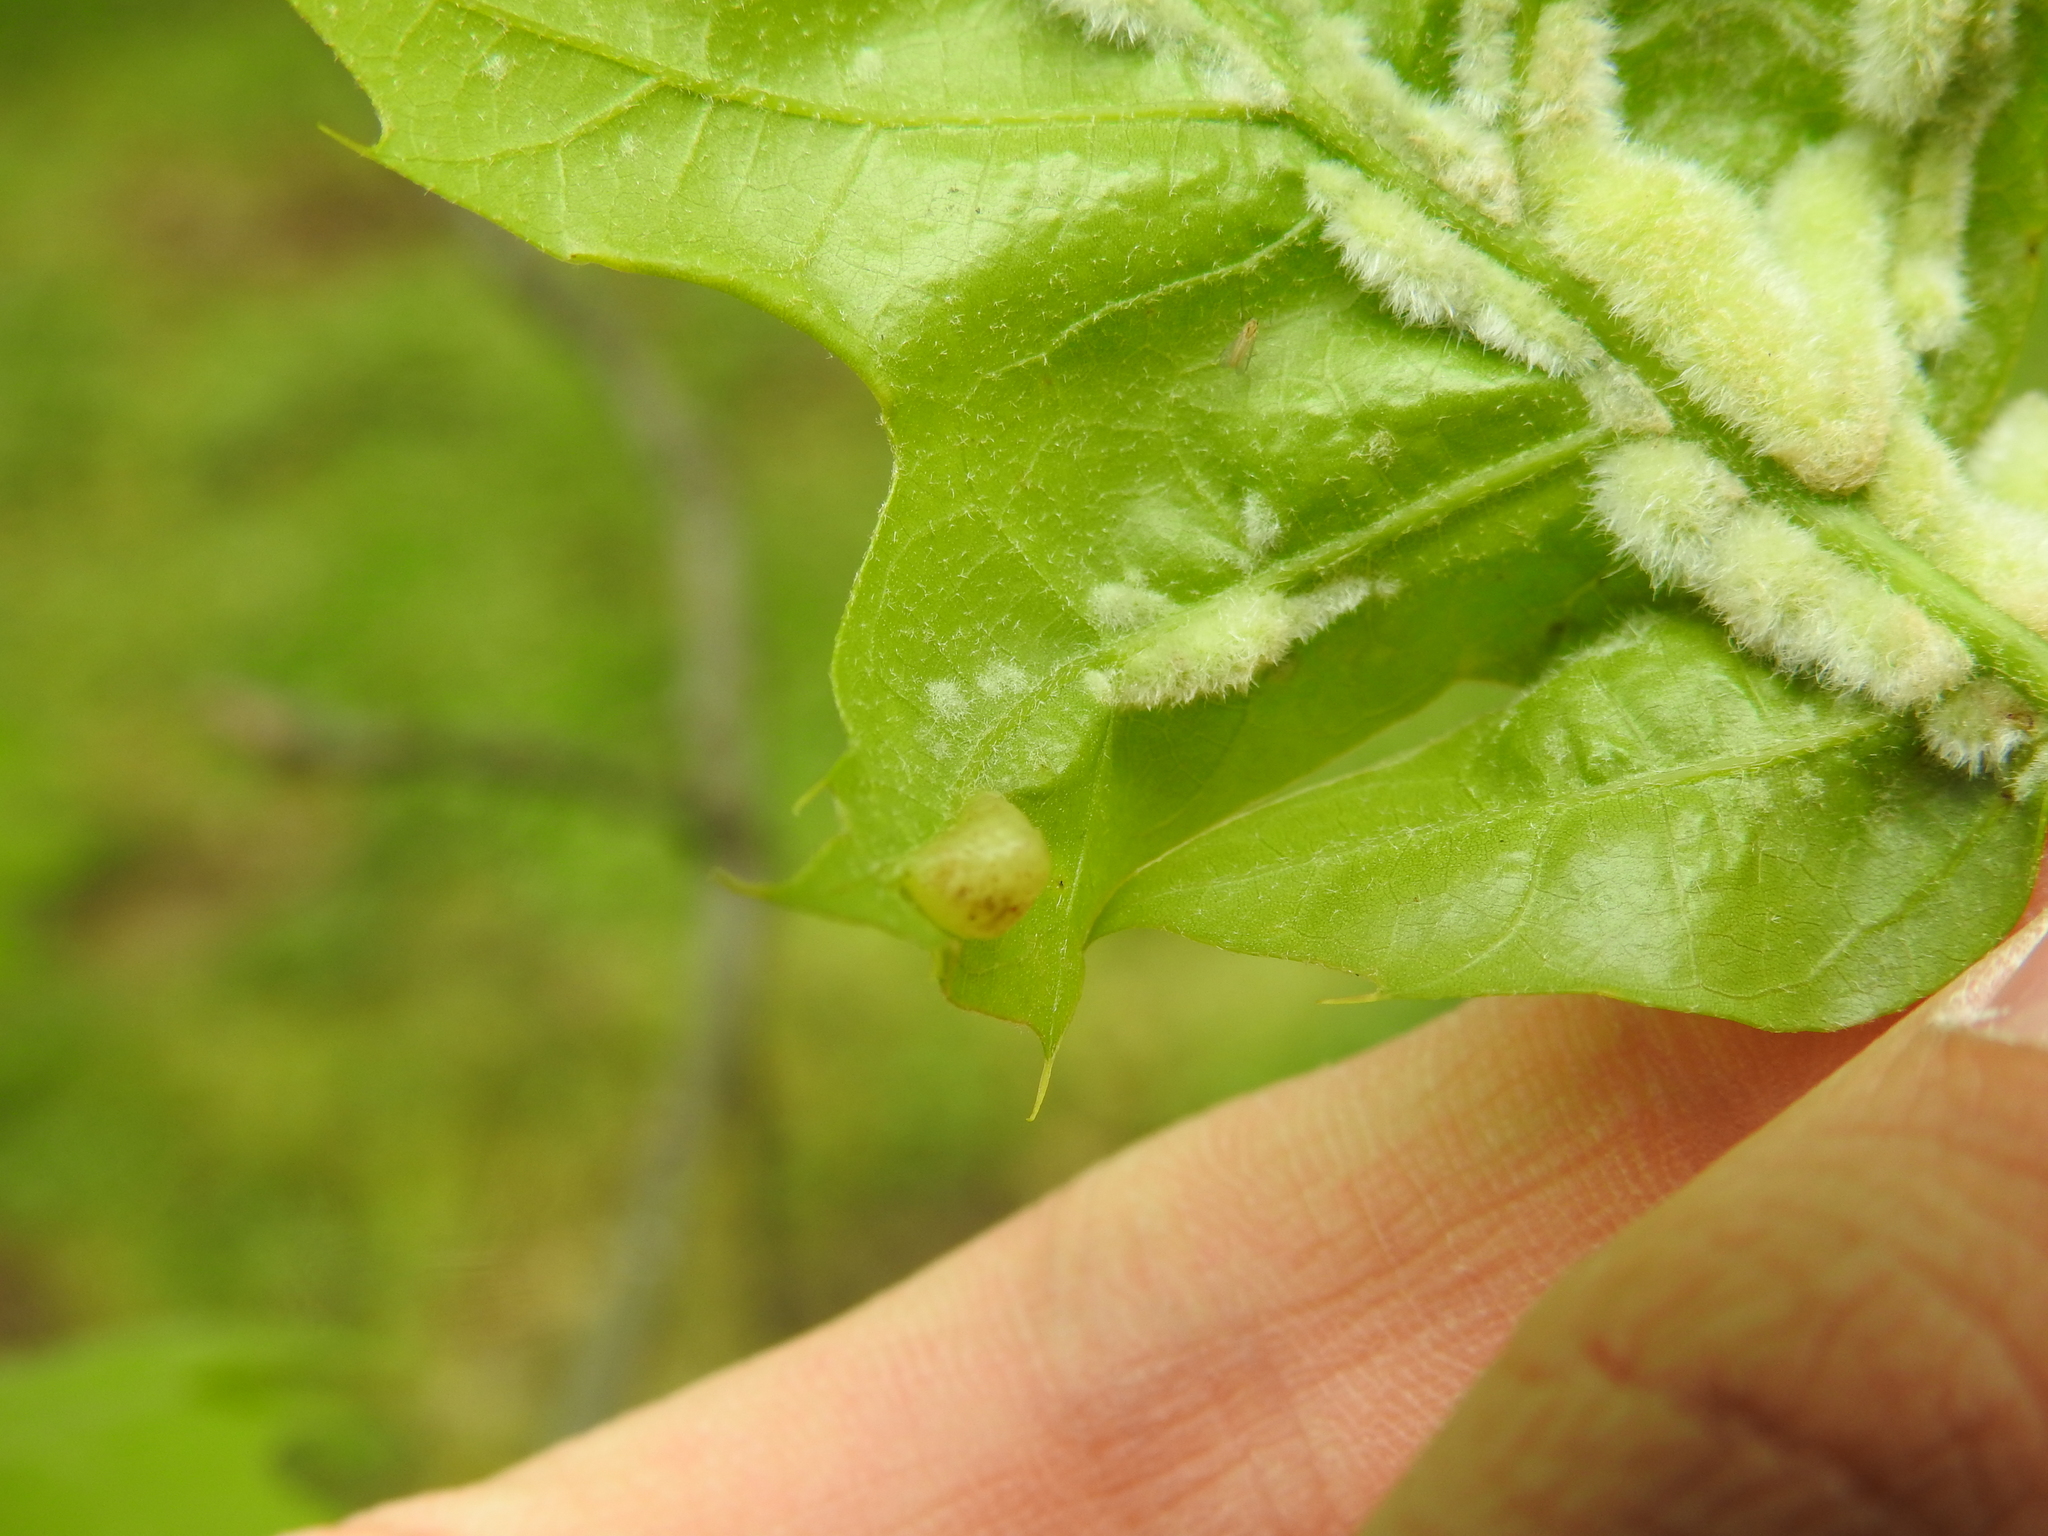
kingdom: Animalia
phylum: Arthropoda
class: Insecta
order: Diptera
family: Cecidomyiidae
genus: Macrodiplosis
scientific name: Macrodiplosis niveipila
